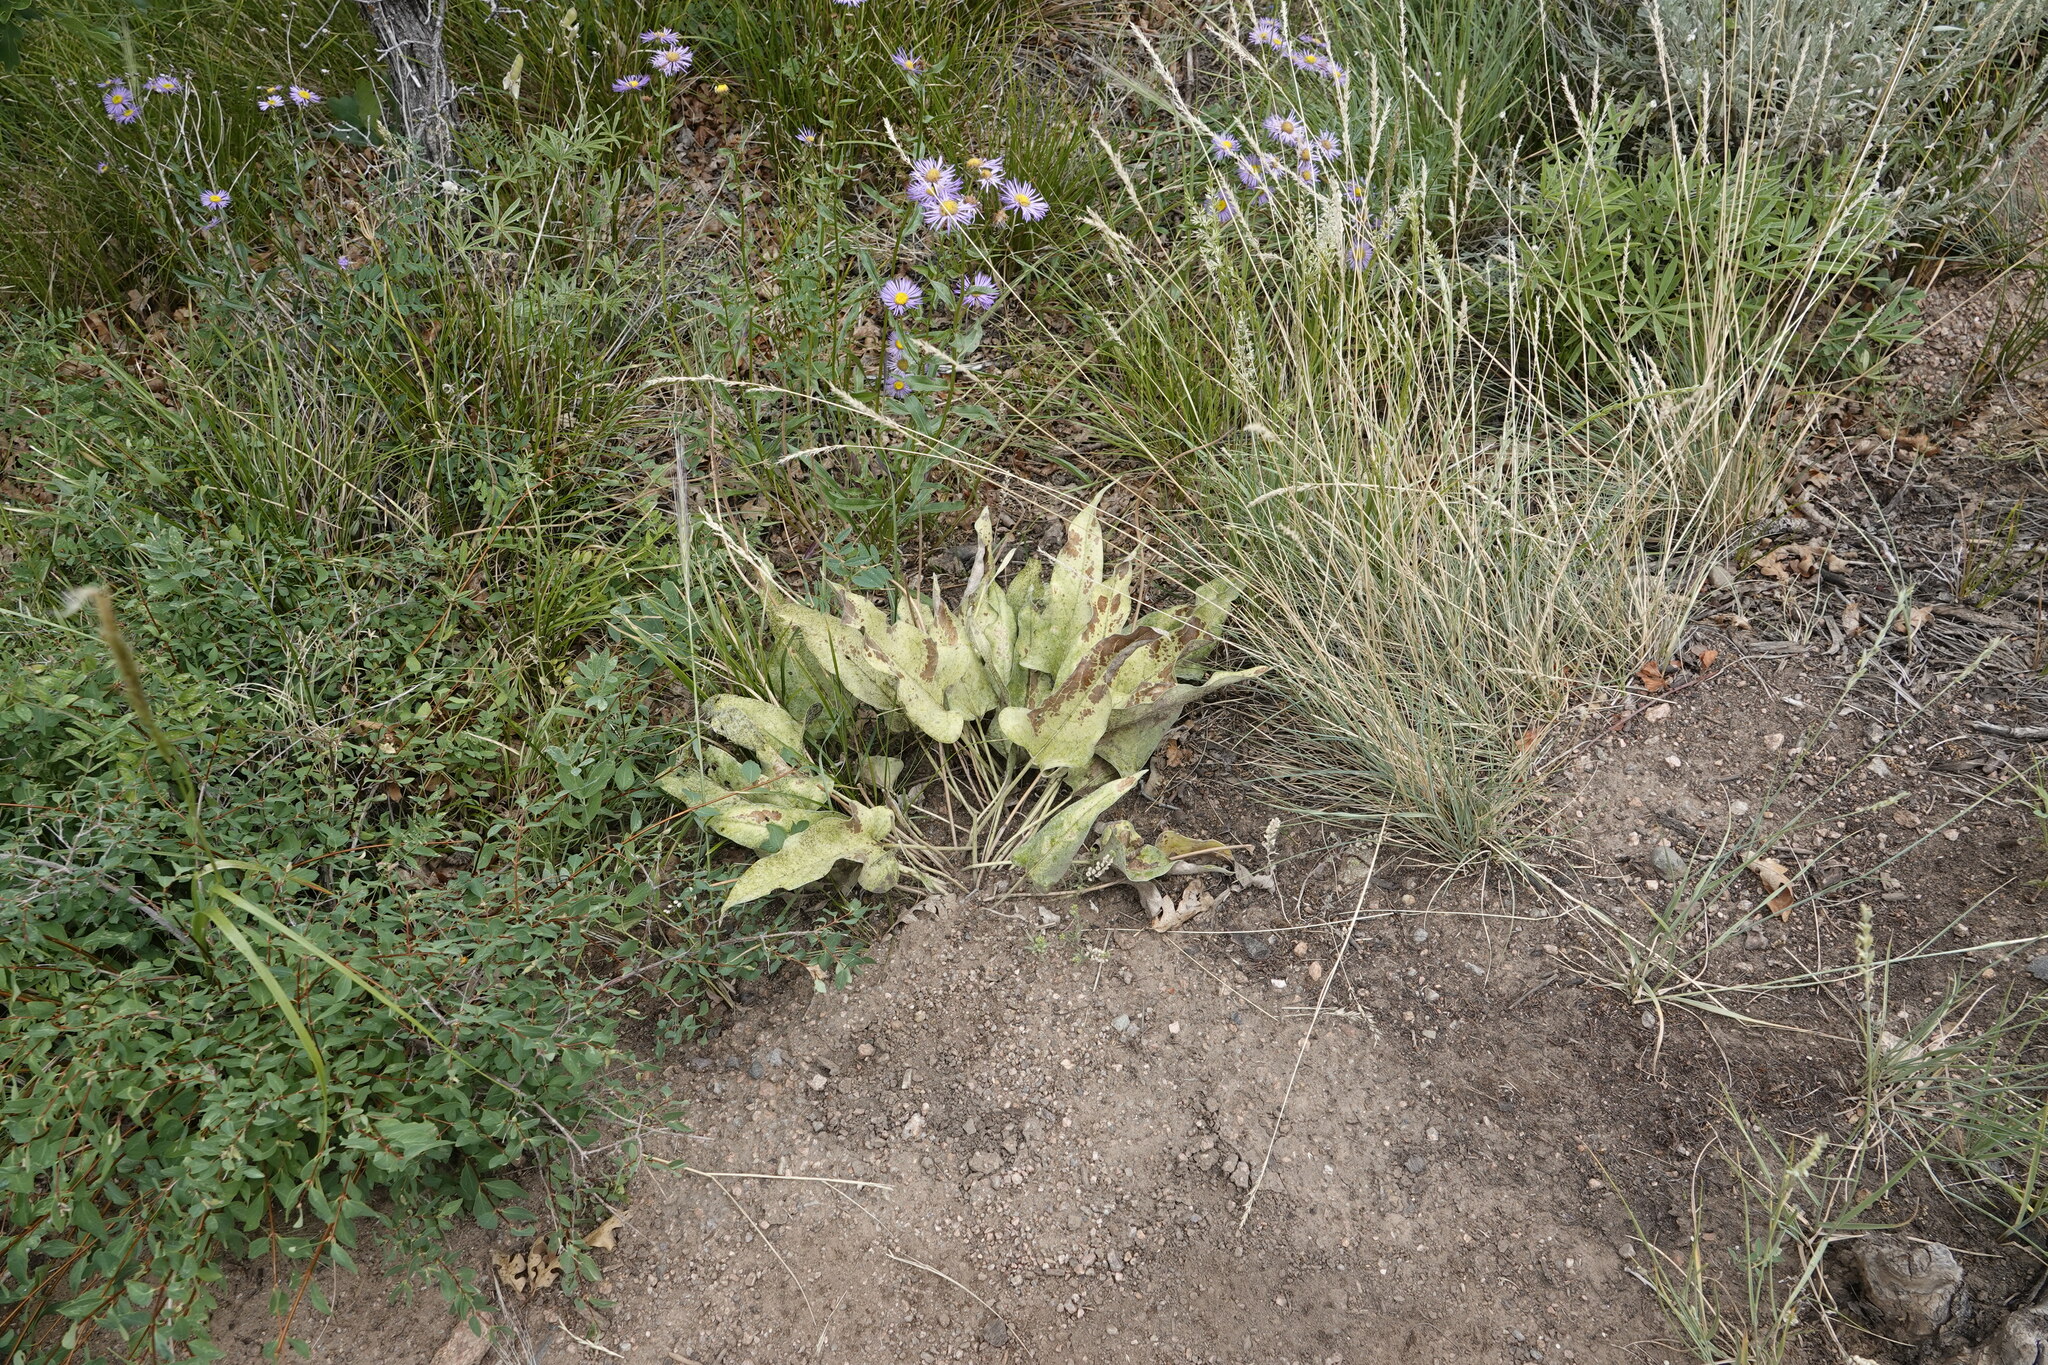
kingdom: Plantae
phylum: Tracheophyta
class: Magnoliopsida
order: Asterales
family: Asteraceae
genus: Wyethia
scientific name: Wyethia sagittata
